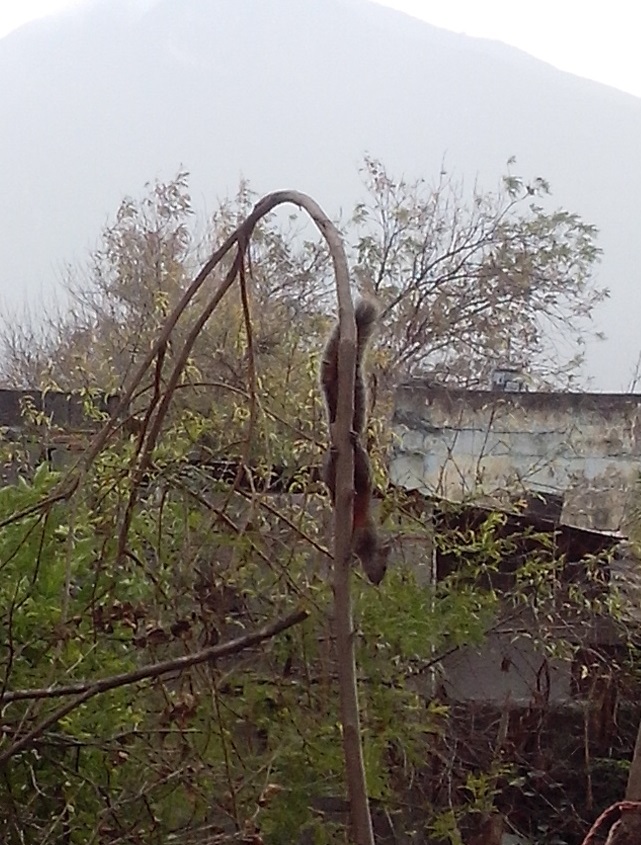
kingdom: Animalia
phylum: Chordata
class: Mammalia
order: Rodentia
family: Sciuridae
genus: Sciurus
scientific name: Sciurus aureogaster
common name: Red-bellied squirrel
